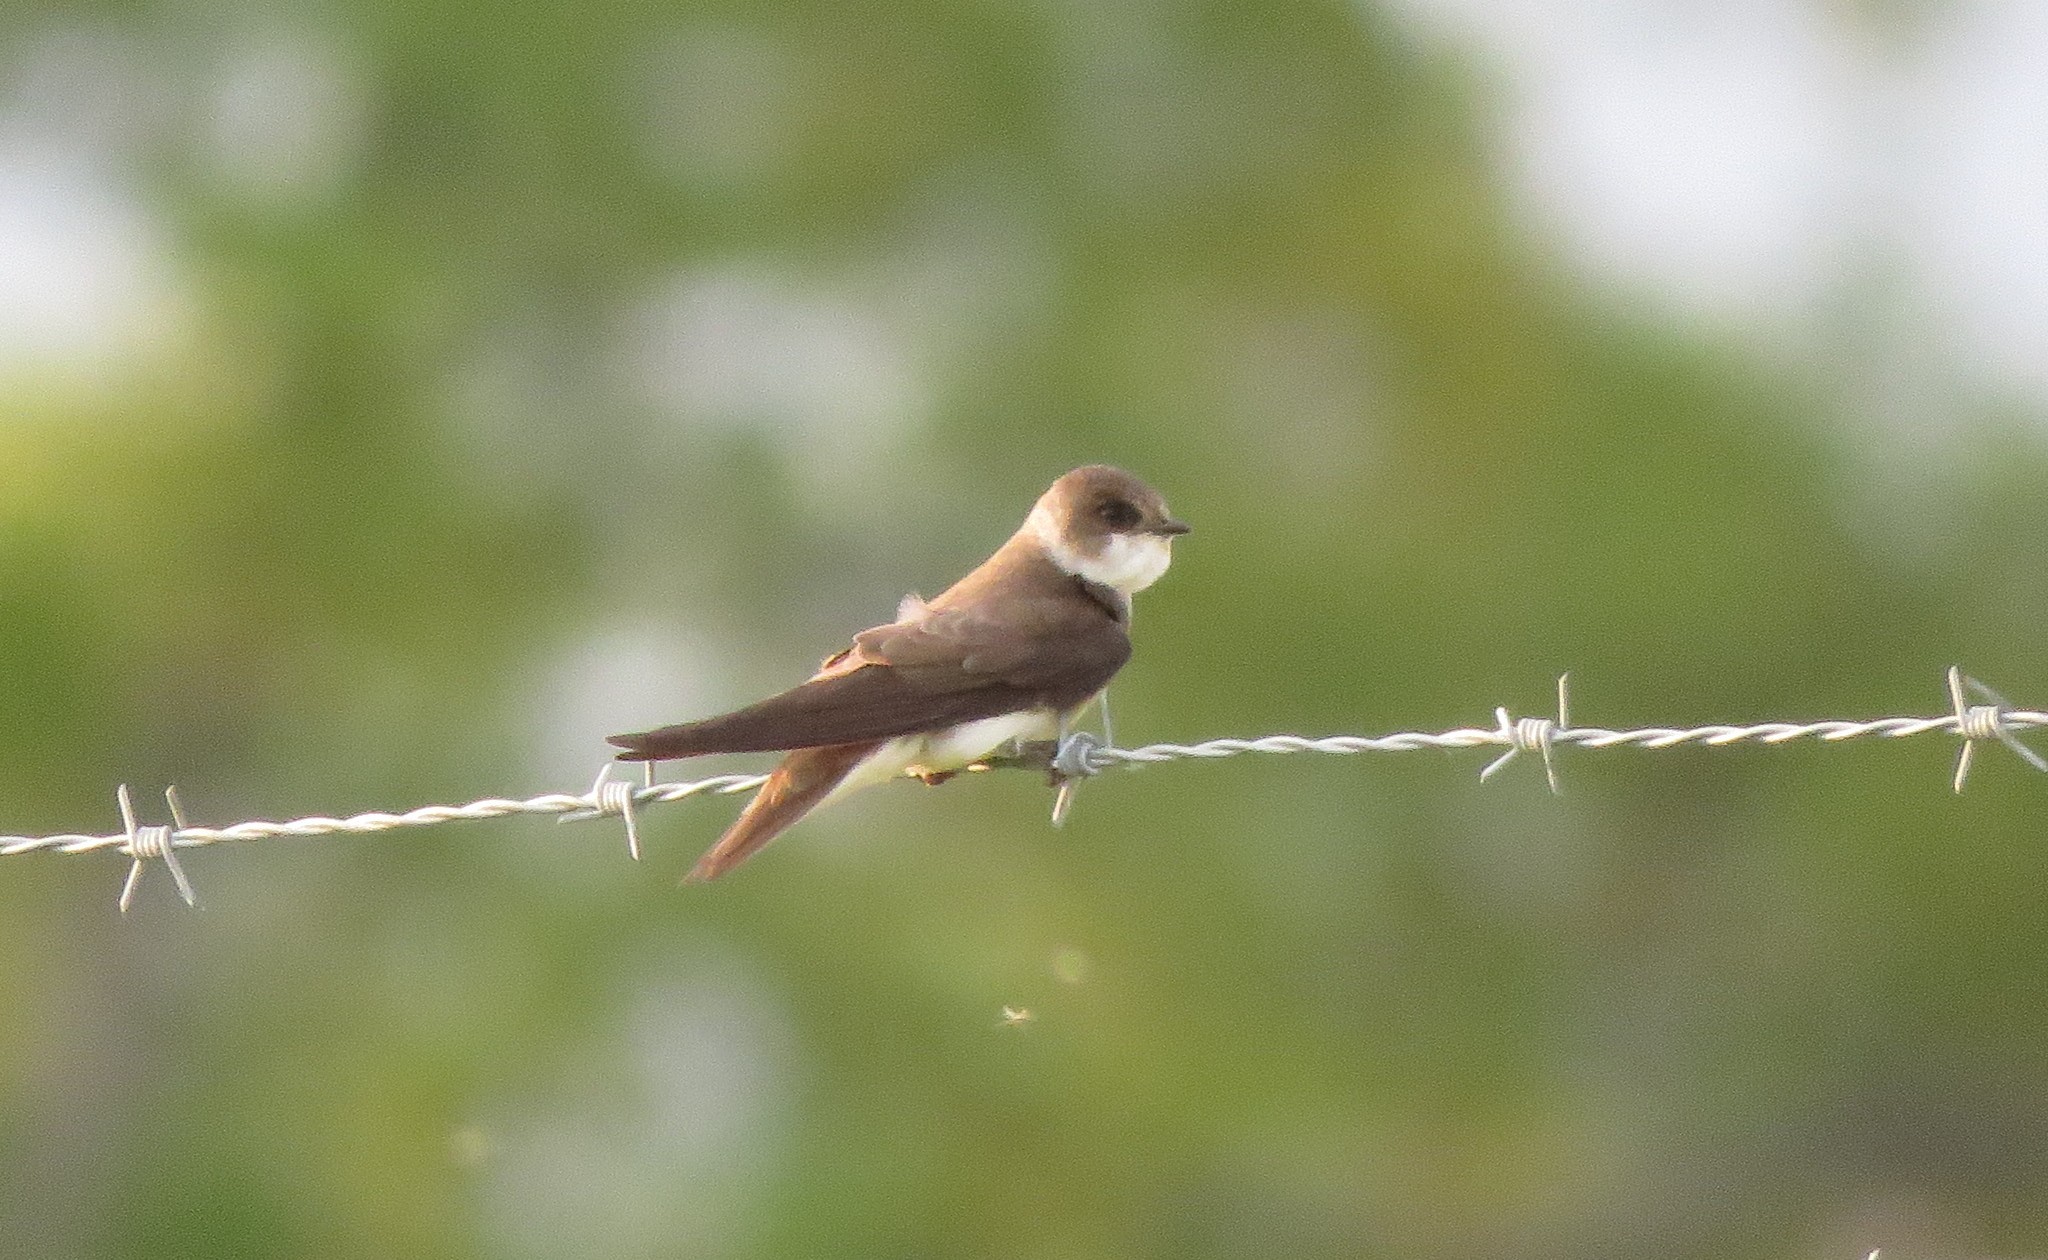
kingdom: Animalia
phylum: Chordata
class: Aves
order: Passeriformes
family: Hirundinidae
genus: Riparia
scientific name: Riparia riparia
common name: Sand martin
